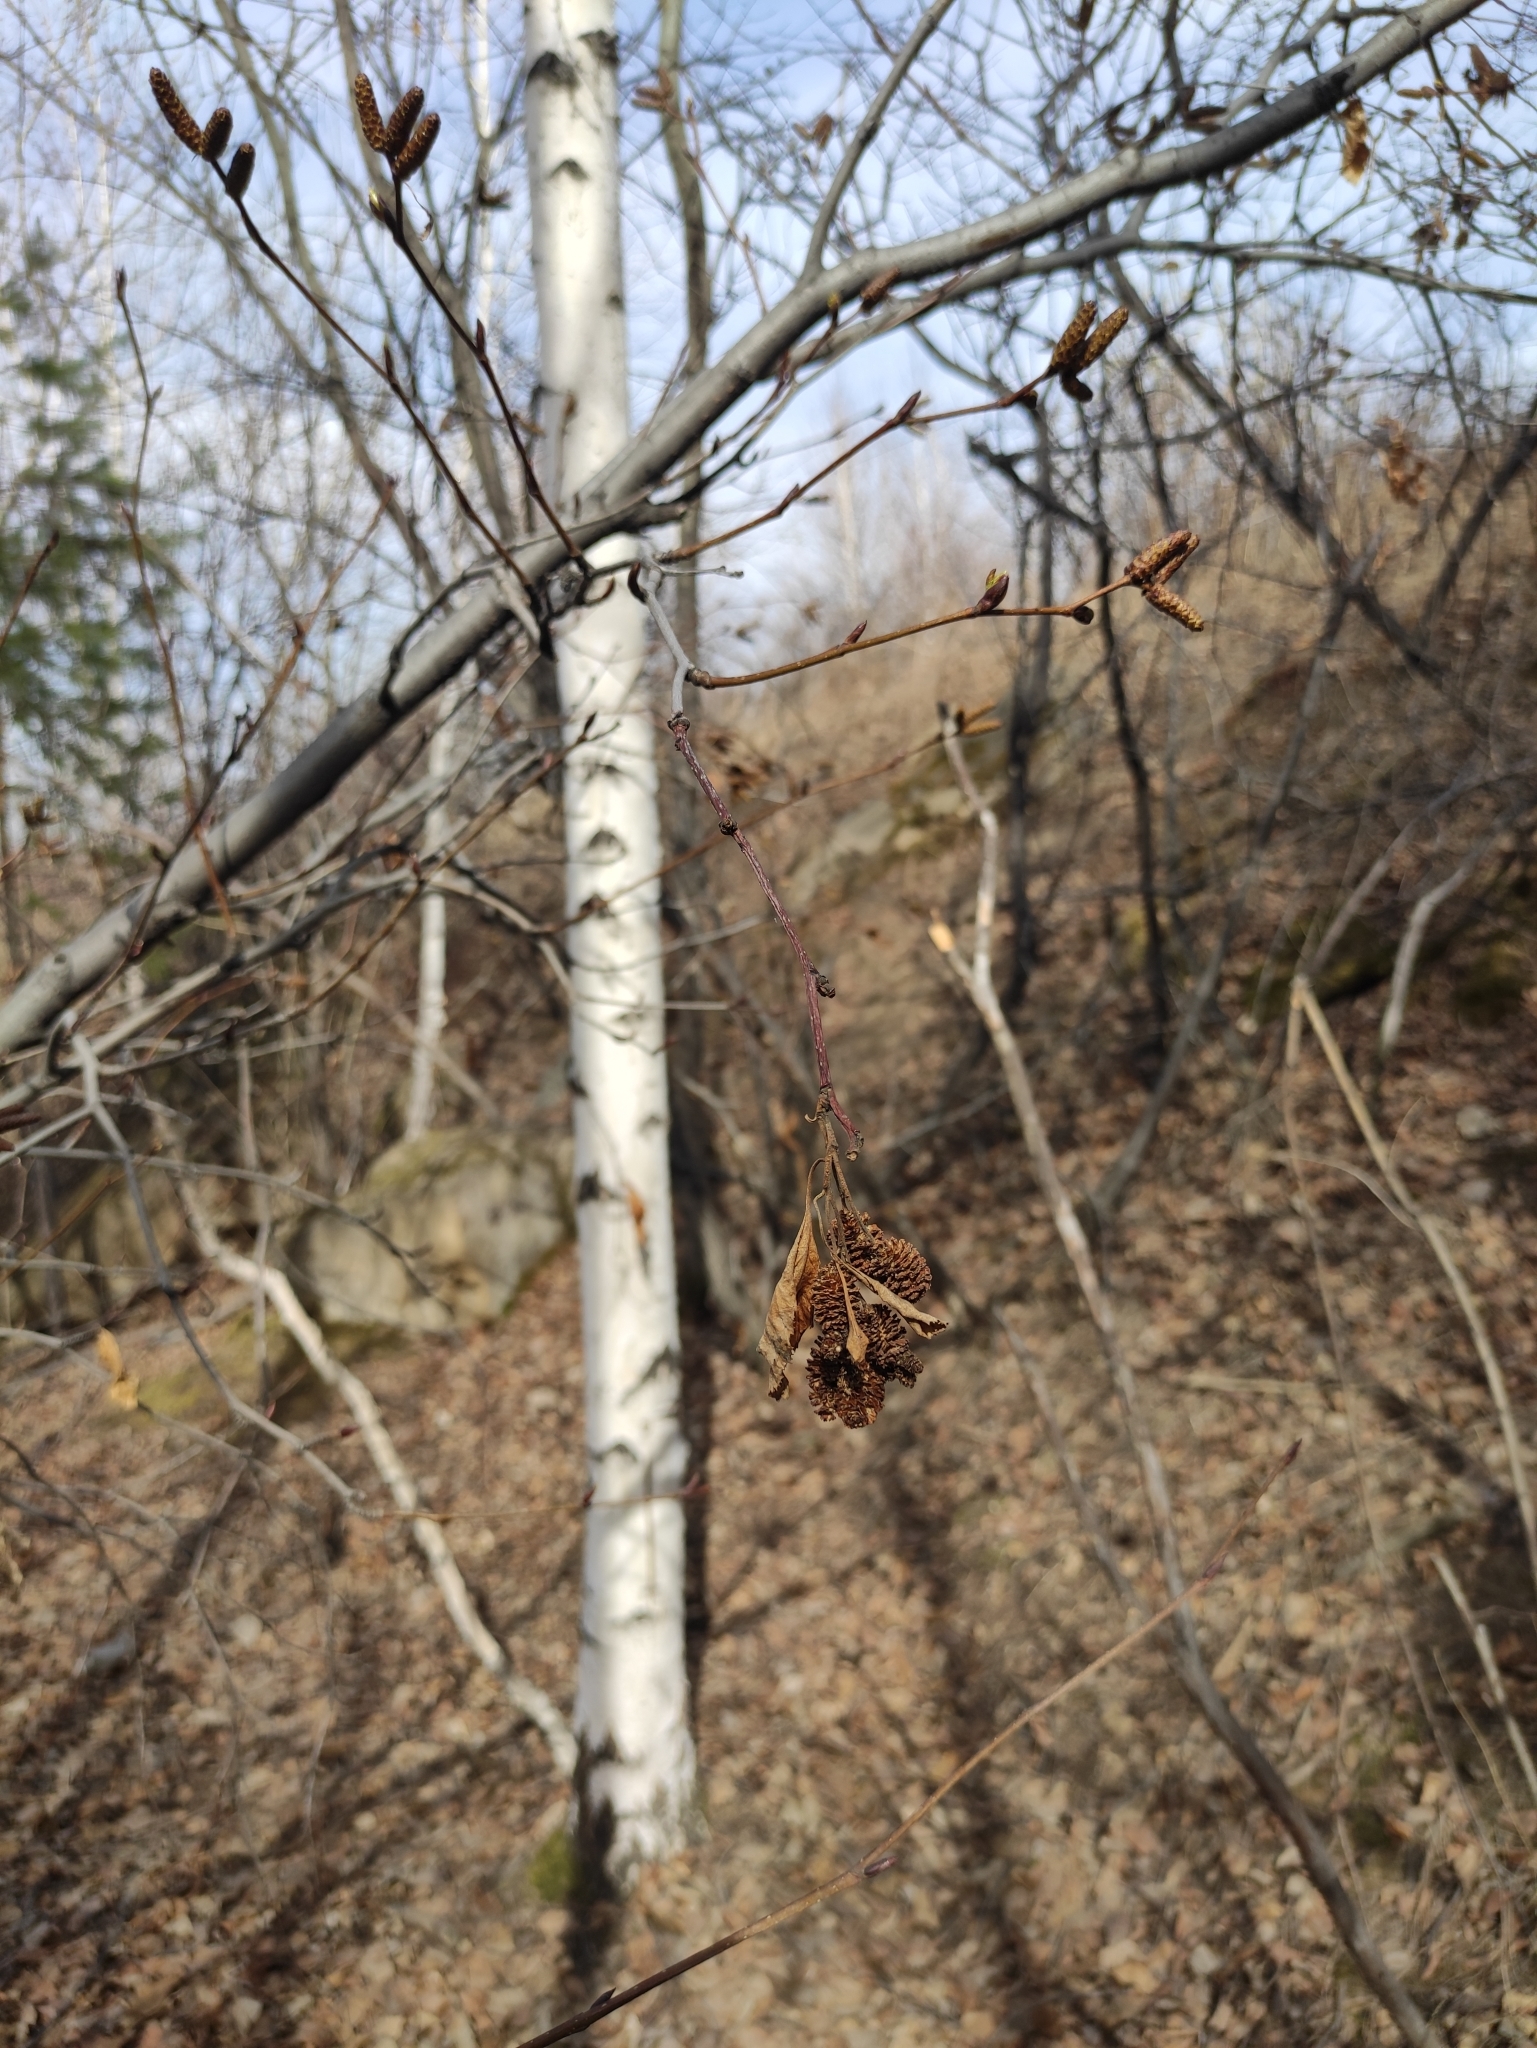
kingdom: Plantae
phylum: Tracheophyta
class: Magnoliopsida
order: Fagales
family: Betulaceae
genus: Alnus
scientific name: Alnus alnobetula
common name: Green alder
